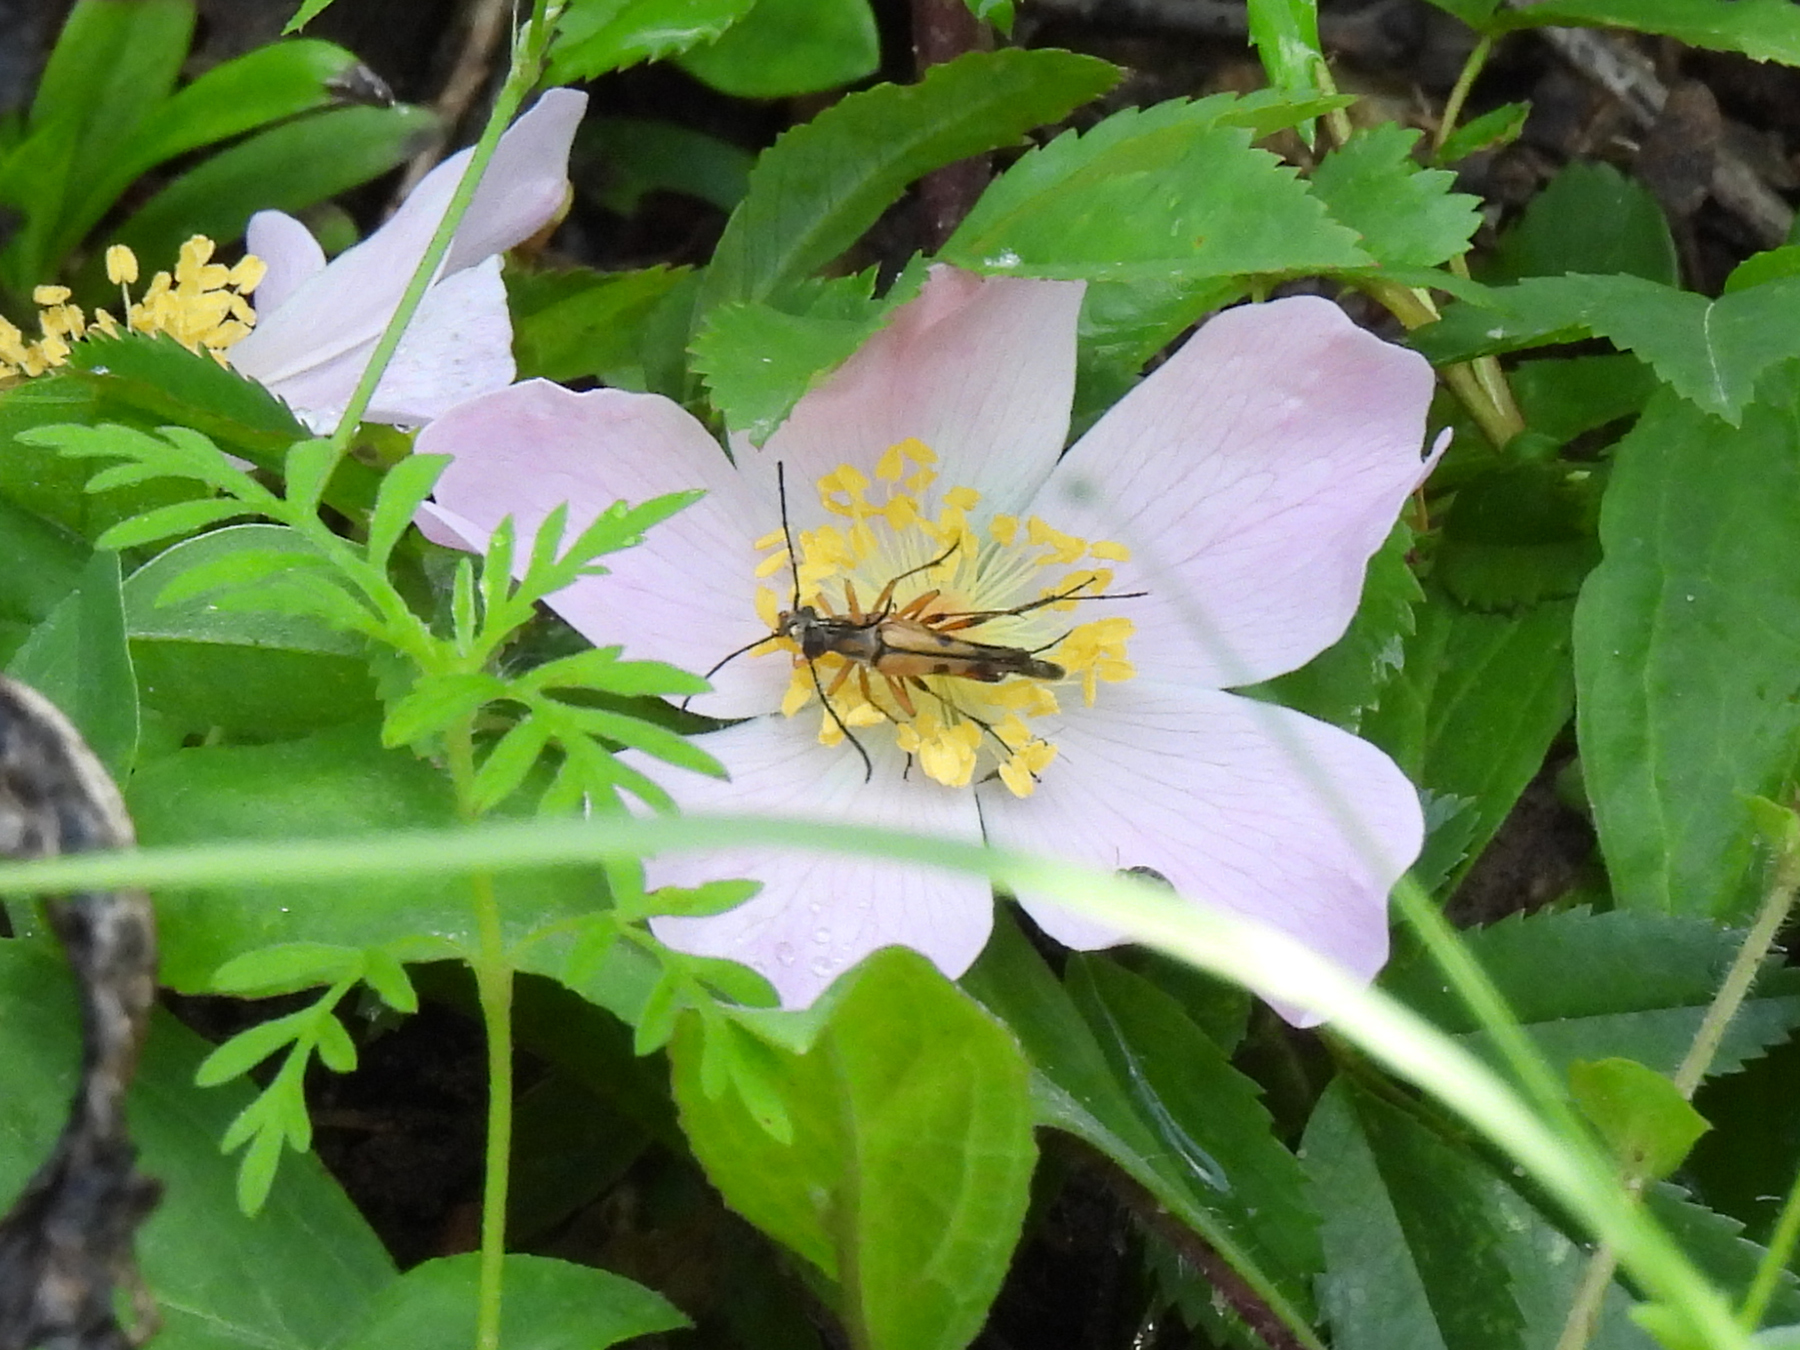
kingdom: Animalia
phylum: Arthropoda
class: Insecta
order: Coleoptera
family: Cerambycidae
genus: Strangalia
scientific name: Strangalia famelica
